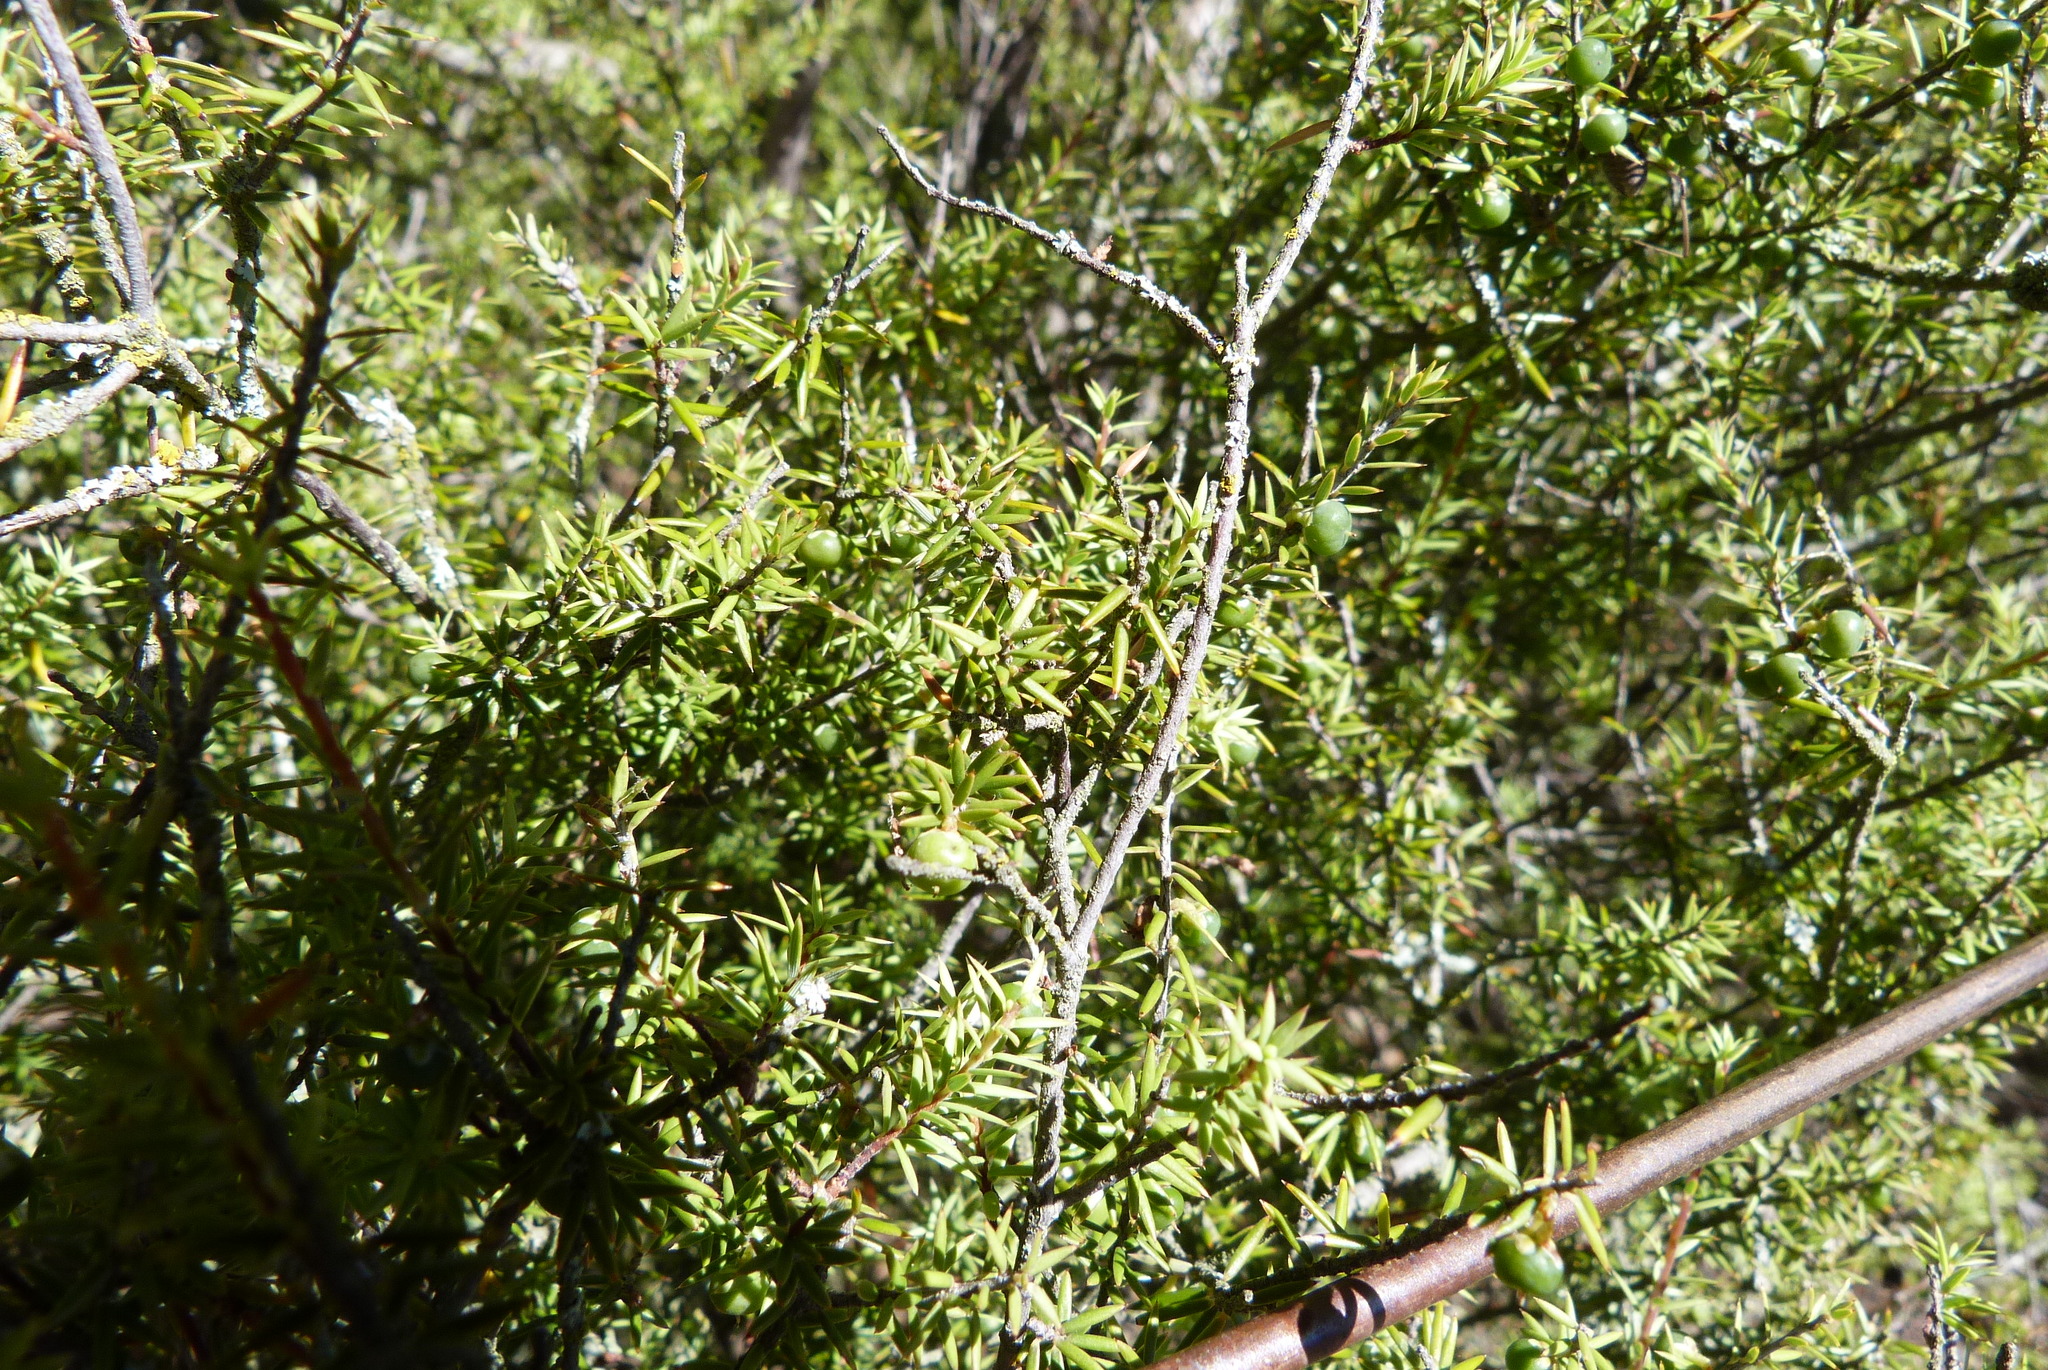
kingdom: Plantae
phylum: Tracheophyta
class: Magnoliopsida
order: Ericales
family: Ericaceae
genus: Leptecophylla
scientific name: Leptecophylla juniperina
